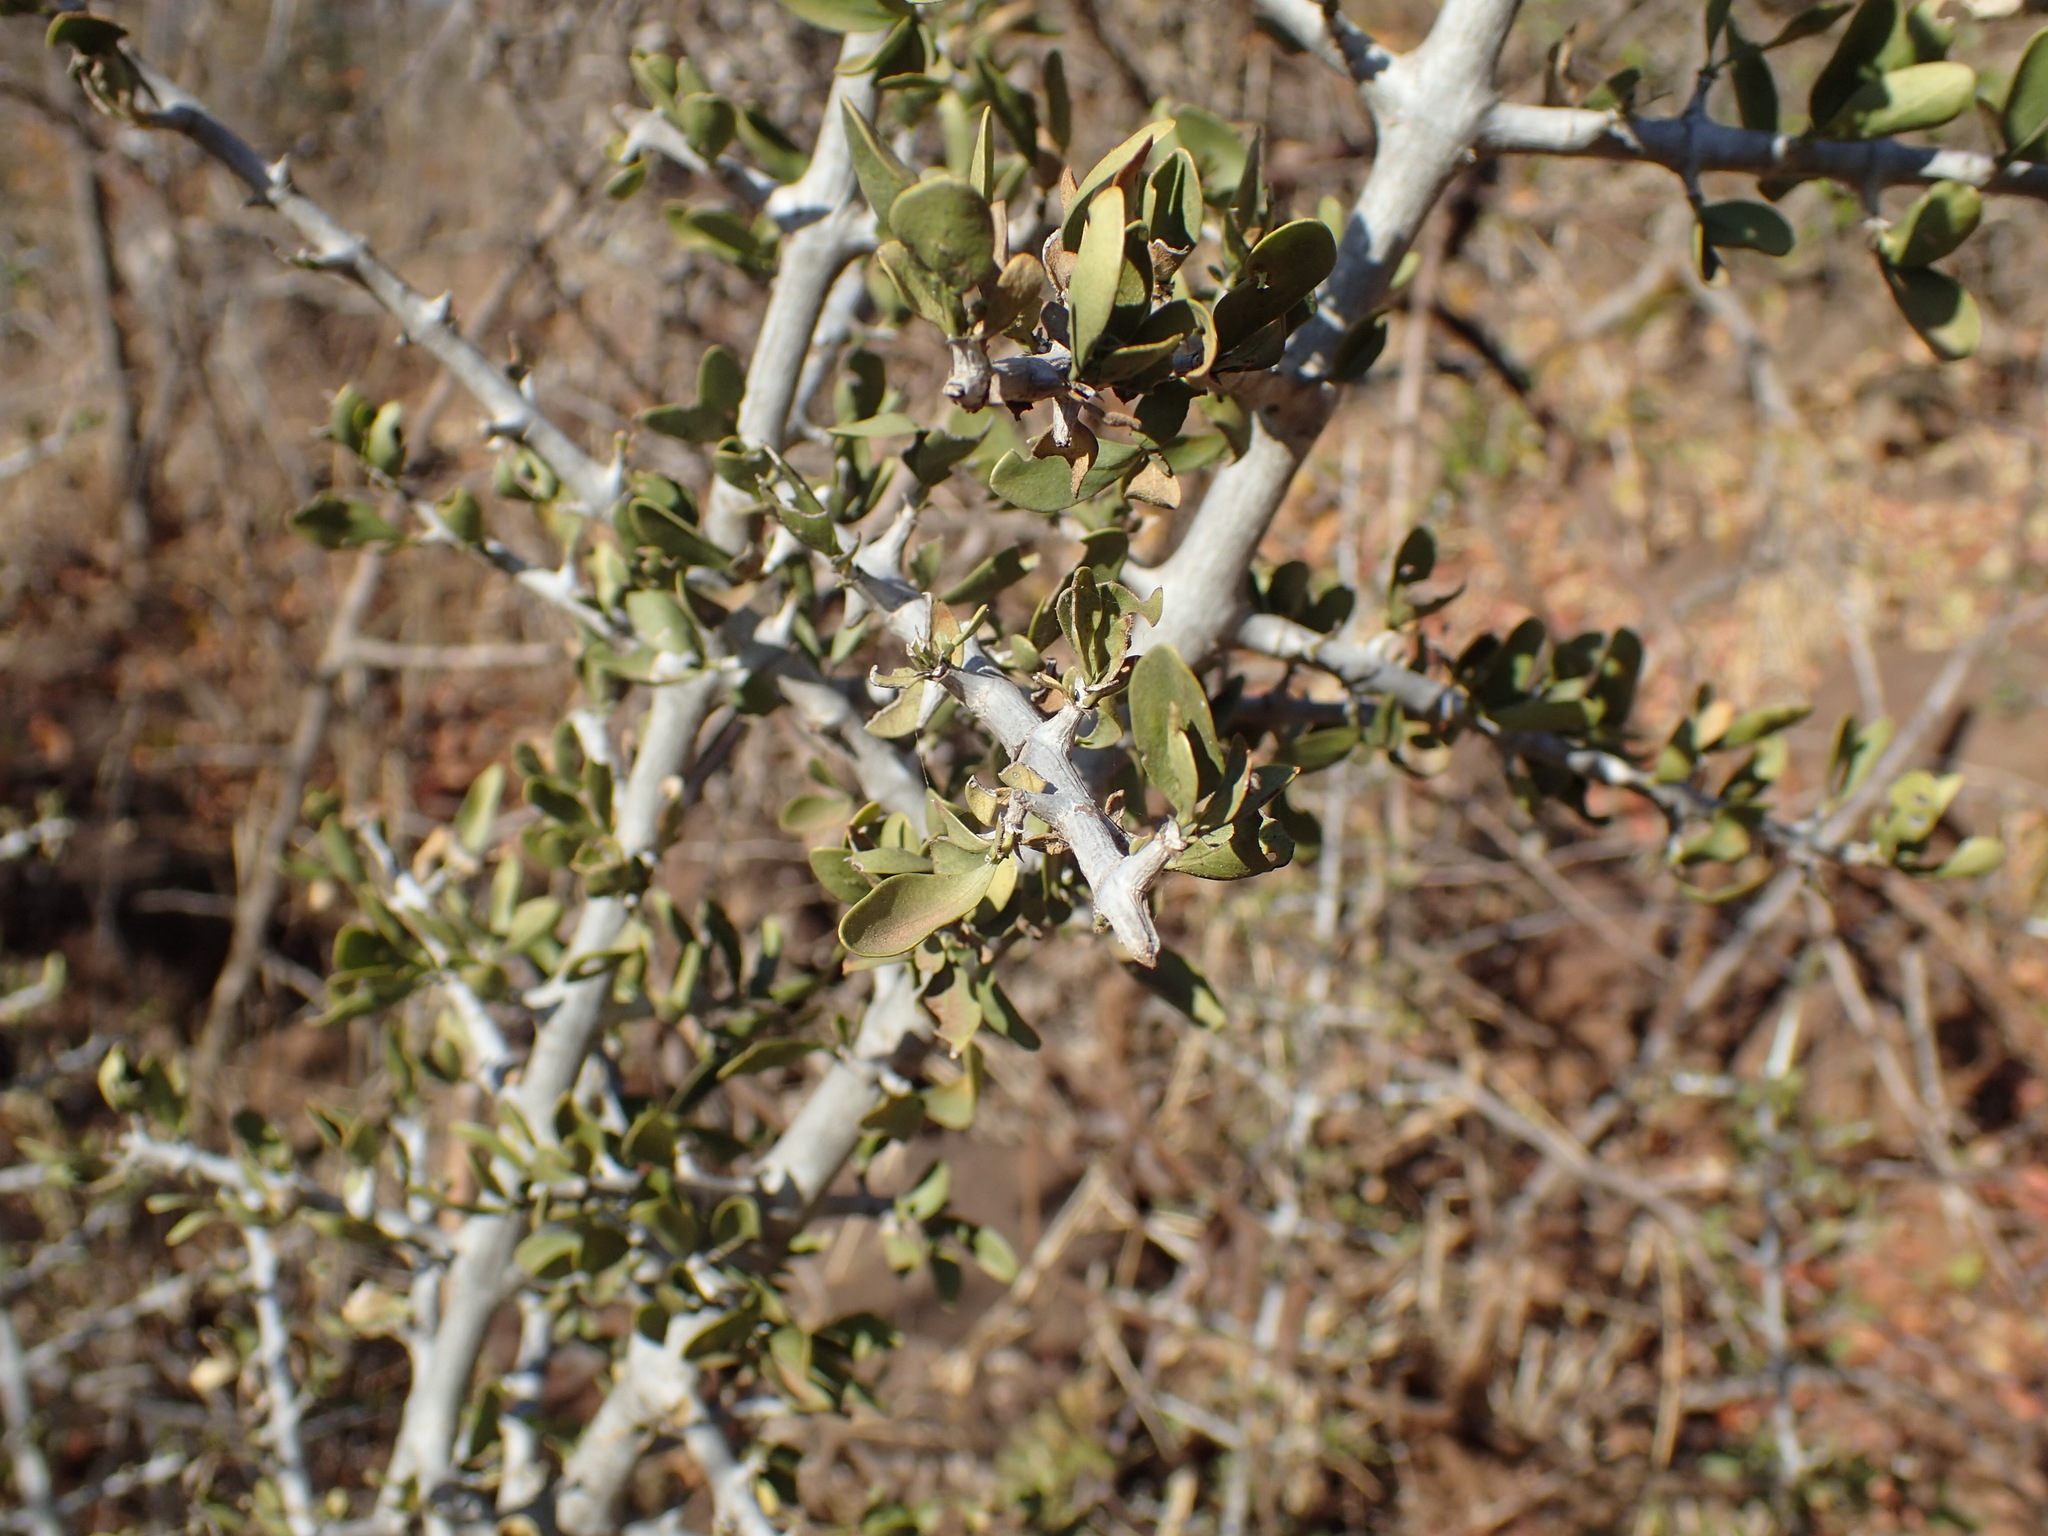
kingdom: Plantae
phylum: Tracheophyta
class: Magnoliopsida
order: Gentianales
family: Rubiaceae
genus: Pyrostria
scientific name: Pyrostria hystrix
